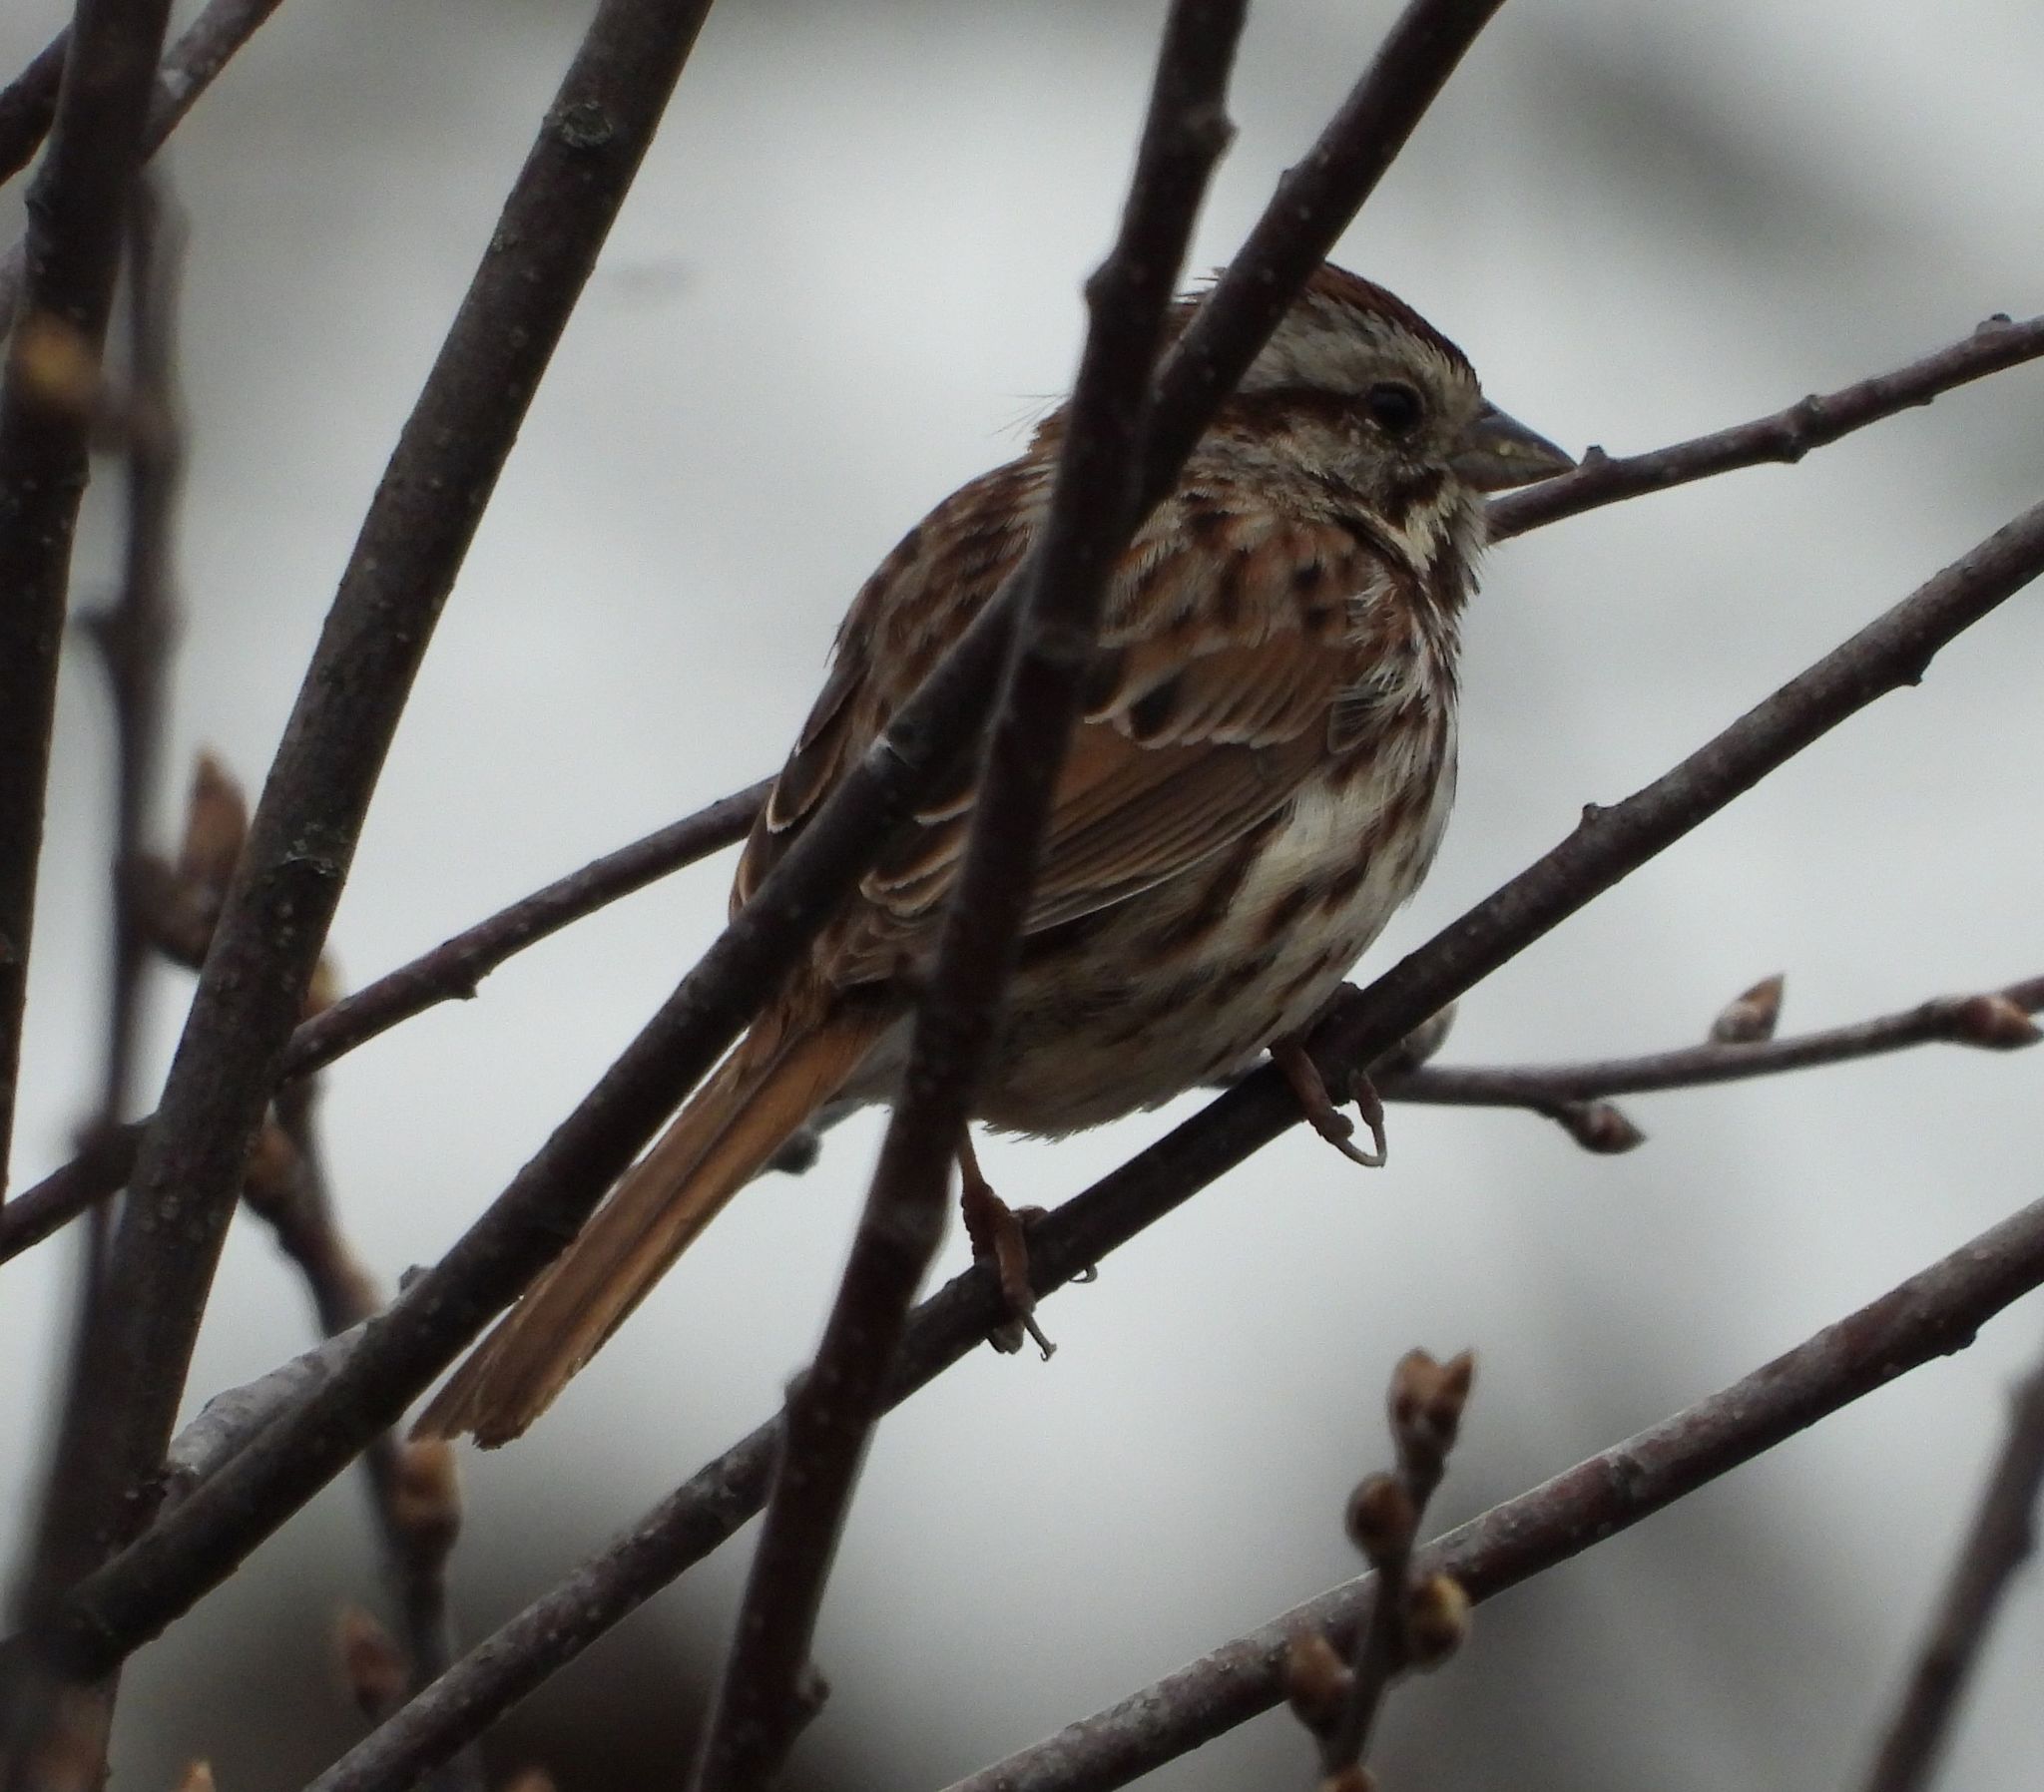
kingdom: Animalia
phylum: Chordata
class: Aves
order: Passeriformes
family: Passerellidae
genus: Melospiza
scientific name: Melospiza melodia
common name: Song sparrow
